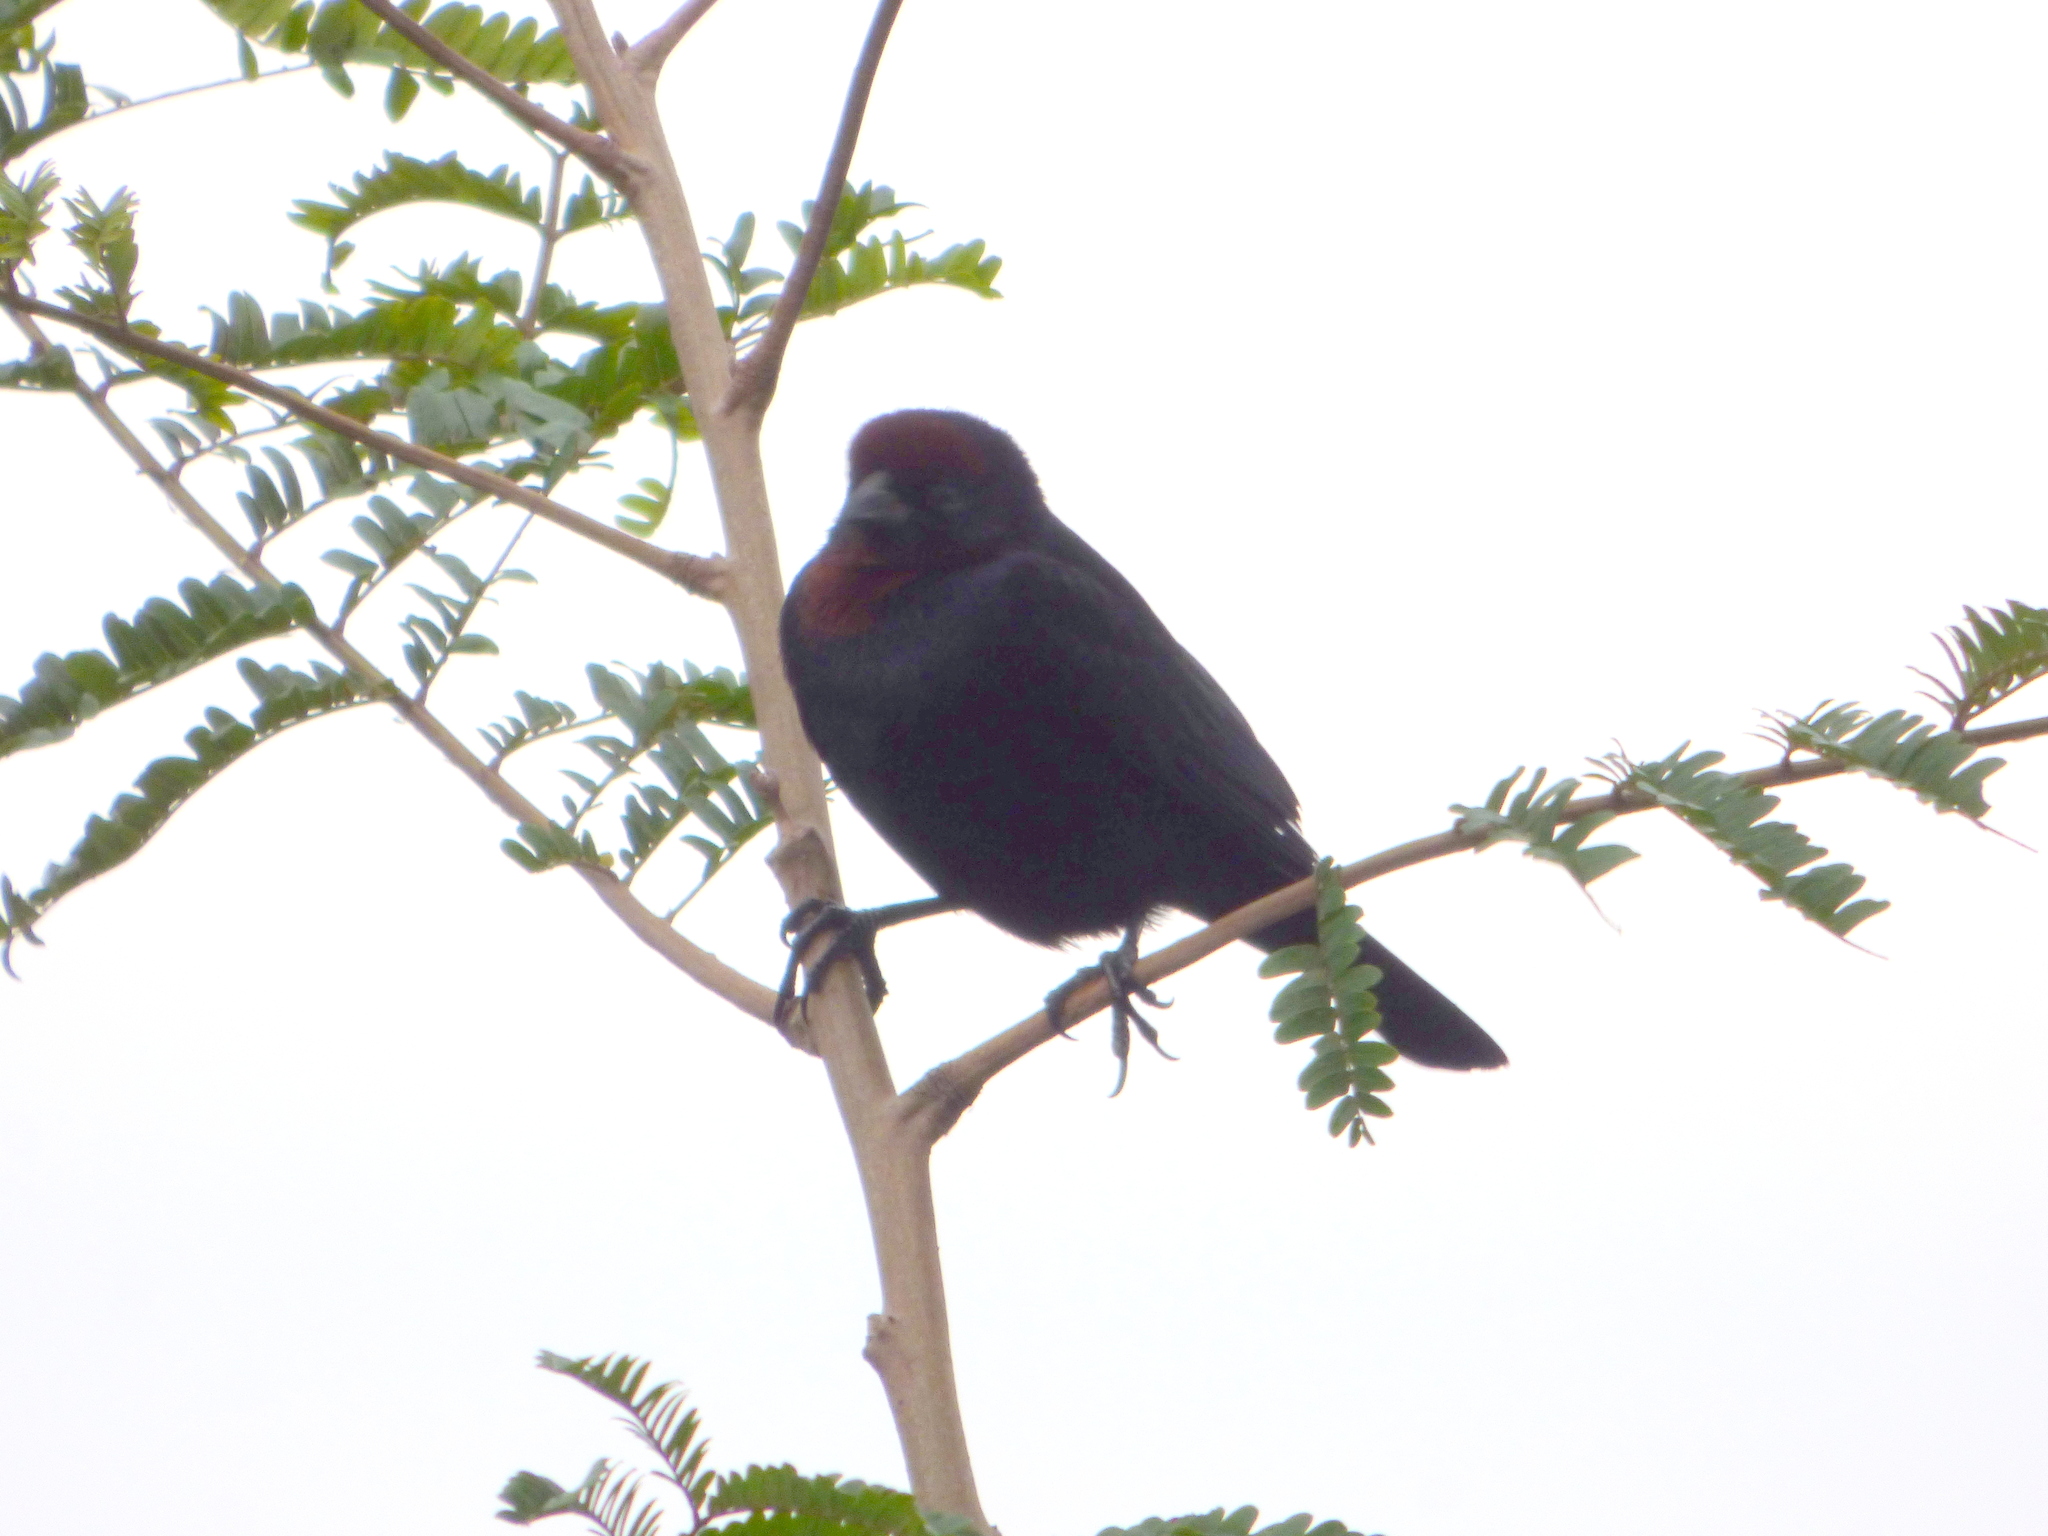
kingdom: Animalia
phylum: Chordata
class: Aves
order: Passeriformes
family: Icteridae
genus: Chrysomus
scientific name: Chrysomus ruficapillus
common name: Chestnut-capped blackbird
